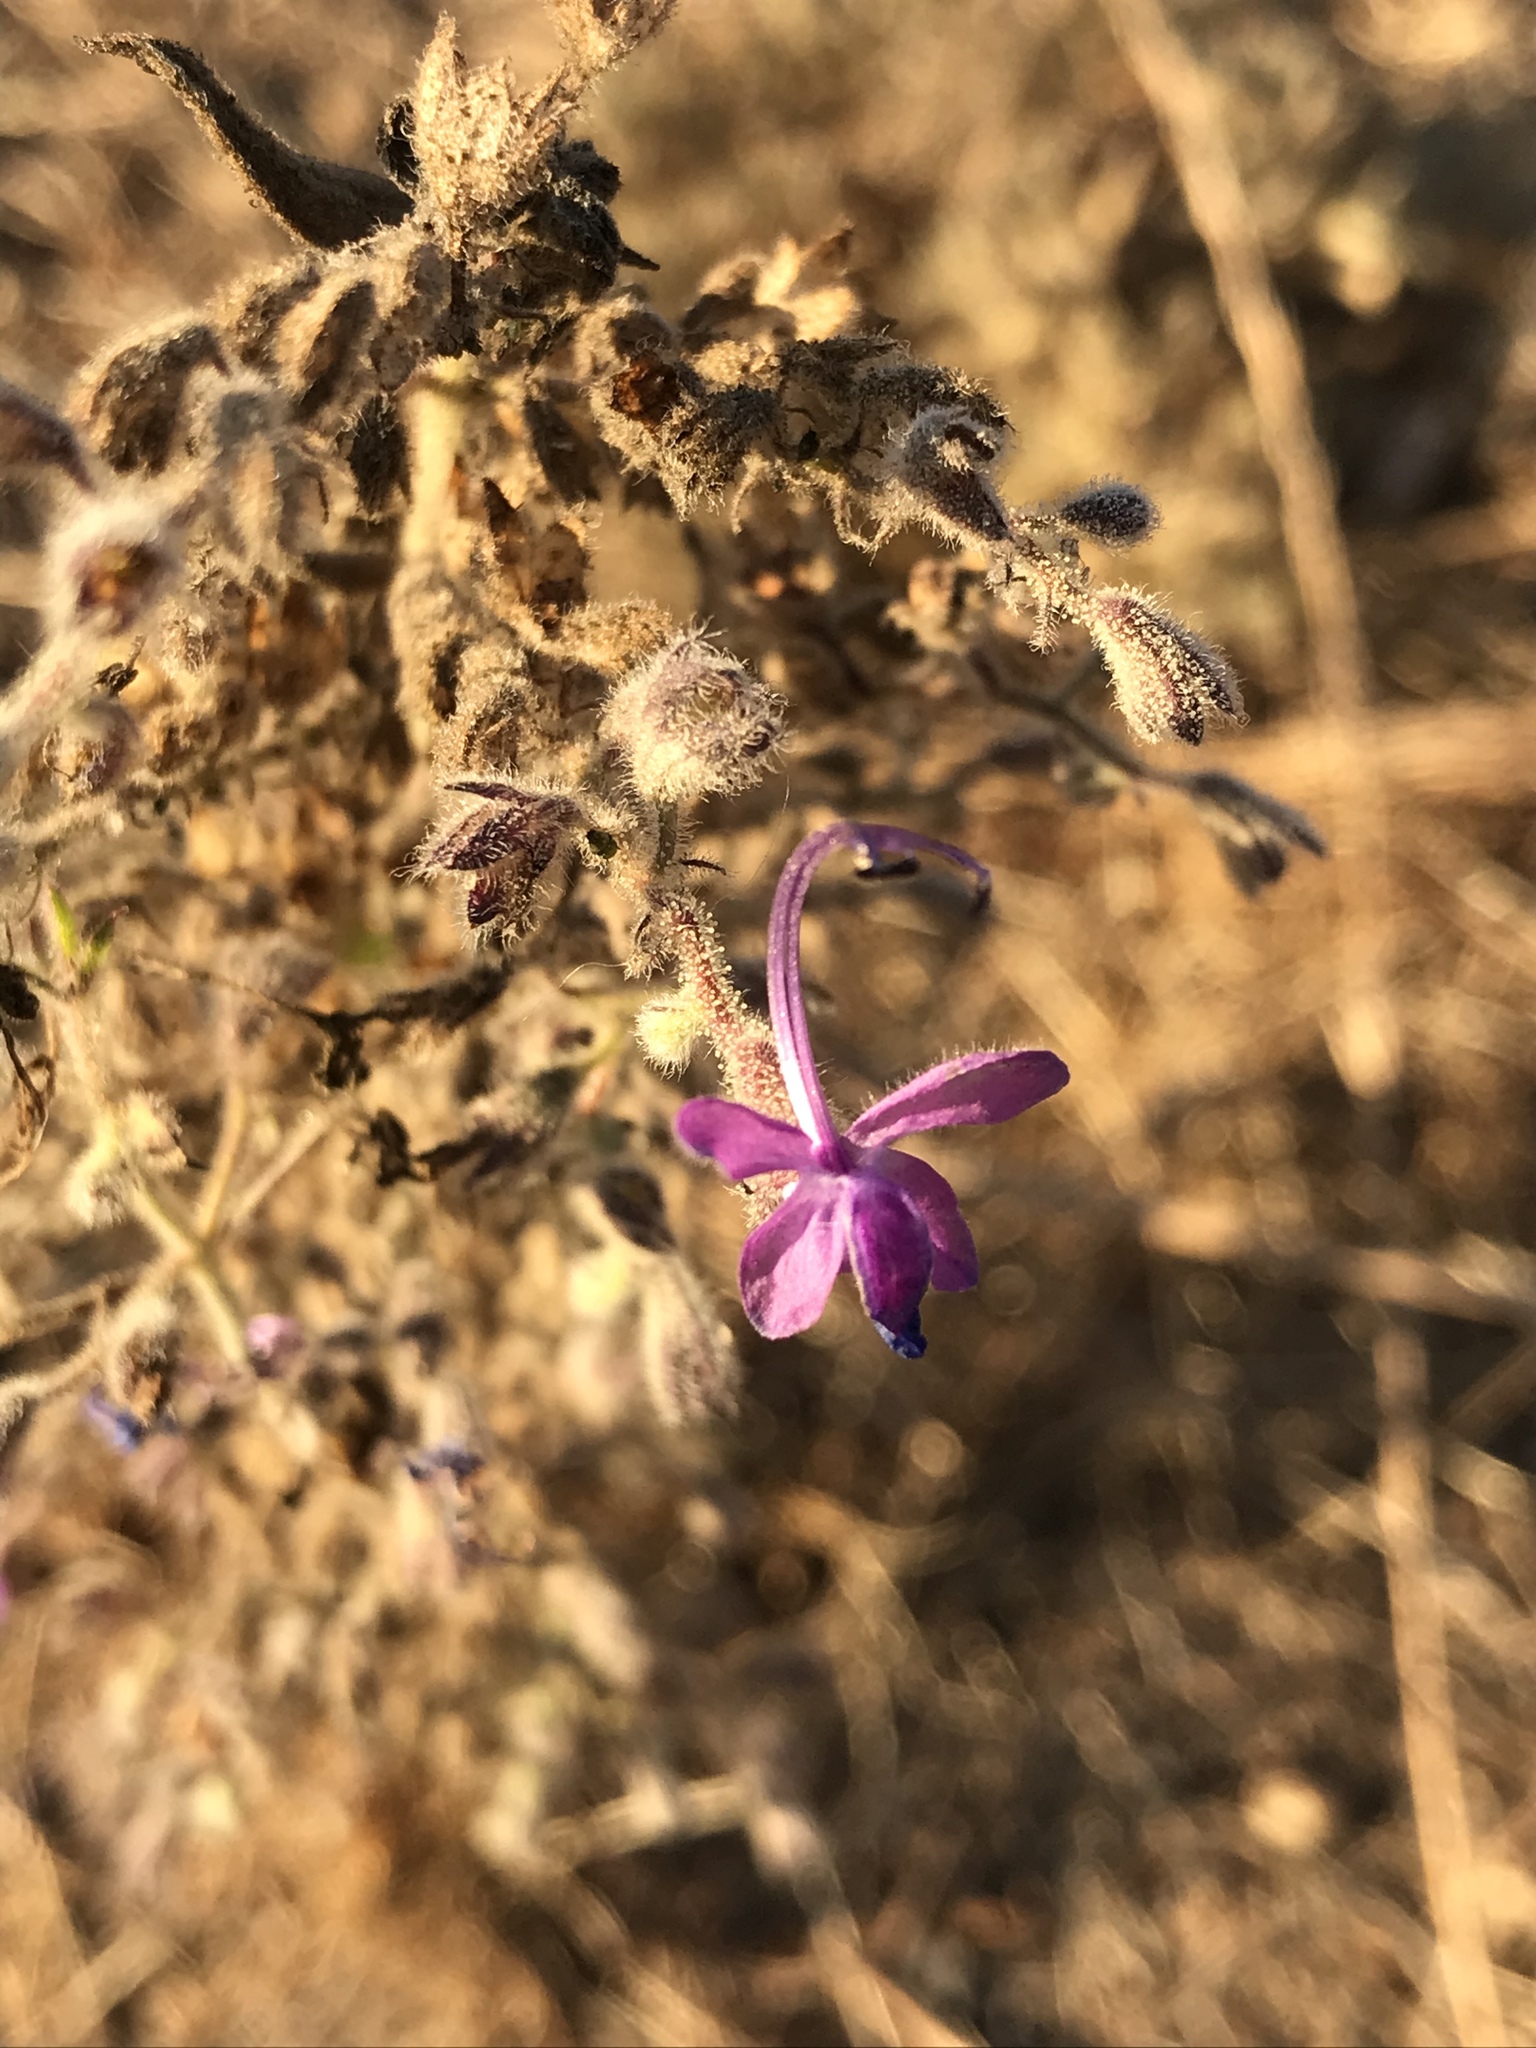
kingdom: Plantae
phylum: Tracheophyta
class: Magnoliopsida
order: Lamiales
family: Lamiaceae
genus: Trichostema
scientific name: Trichostema lanceolatum
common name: Vinegar-weed
